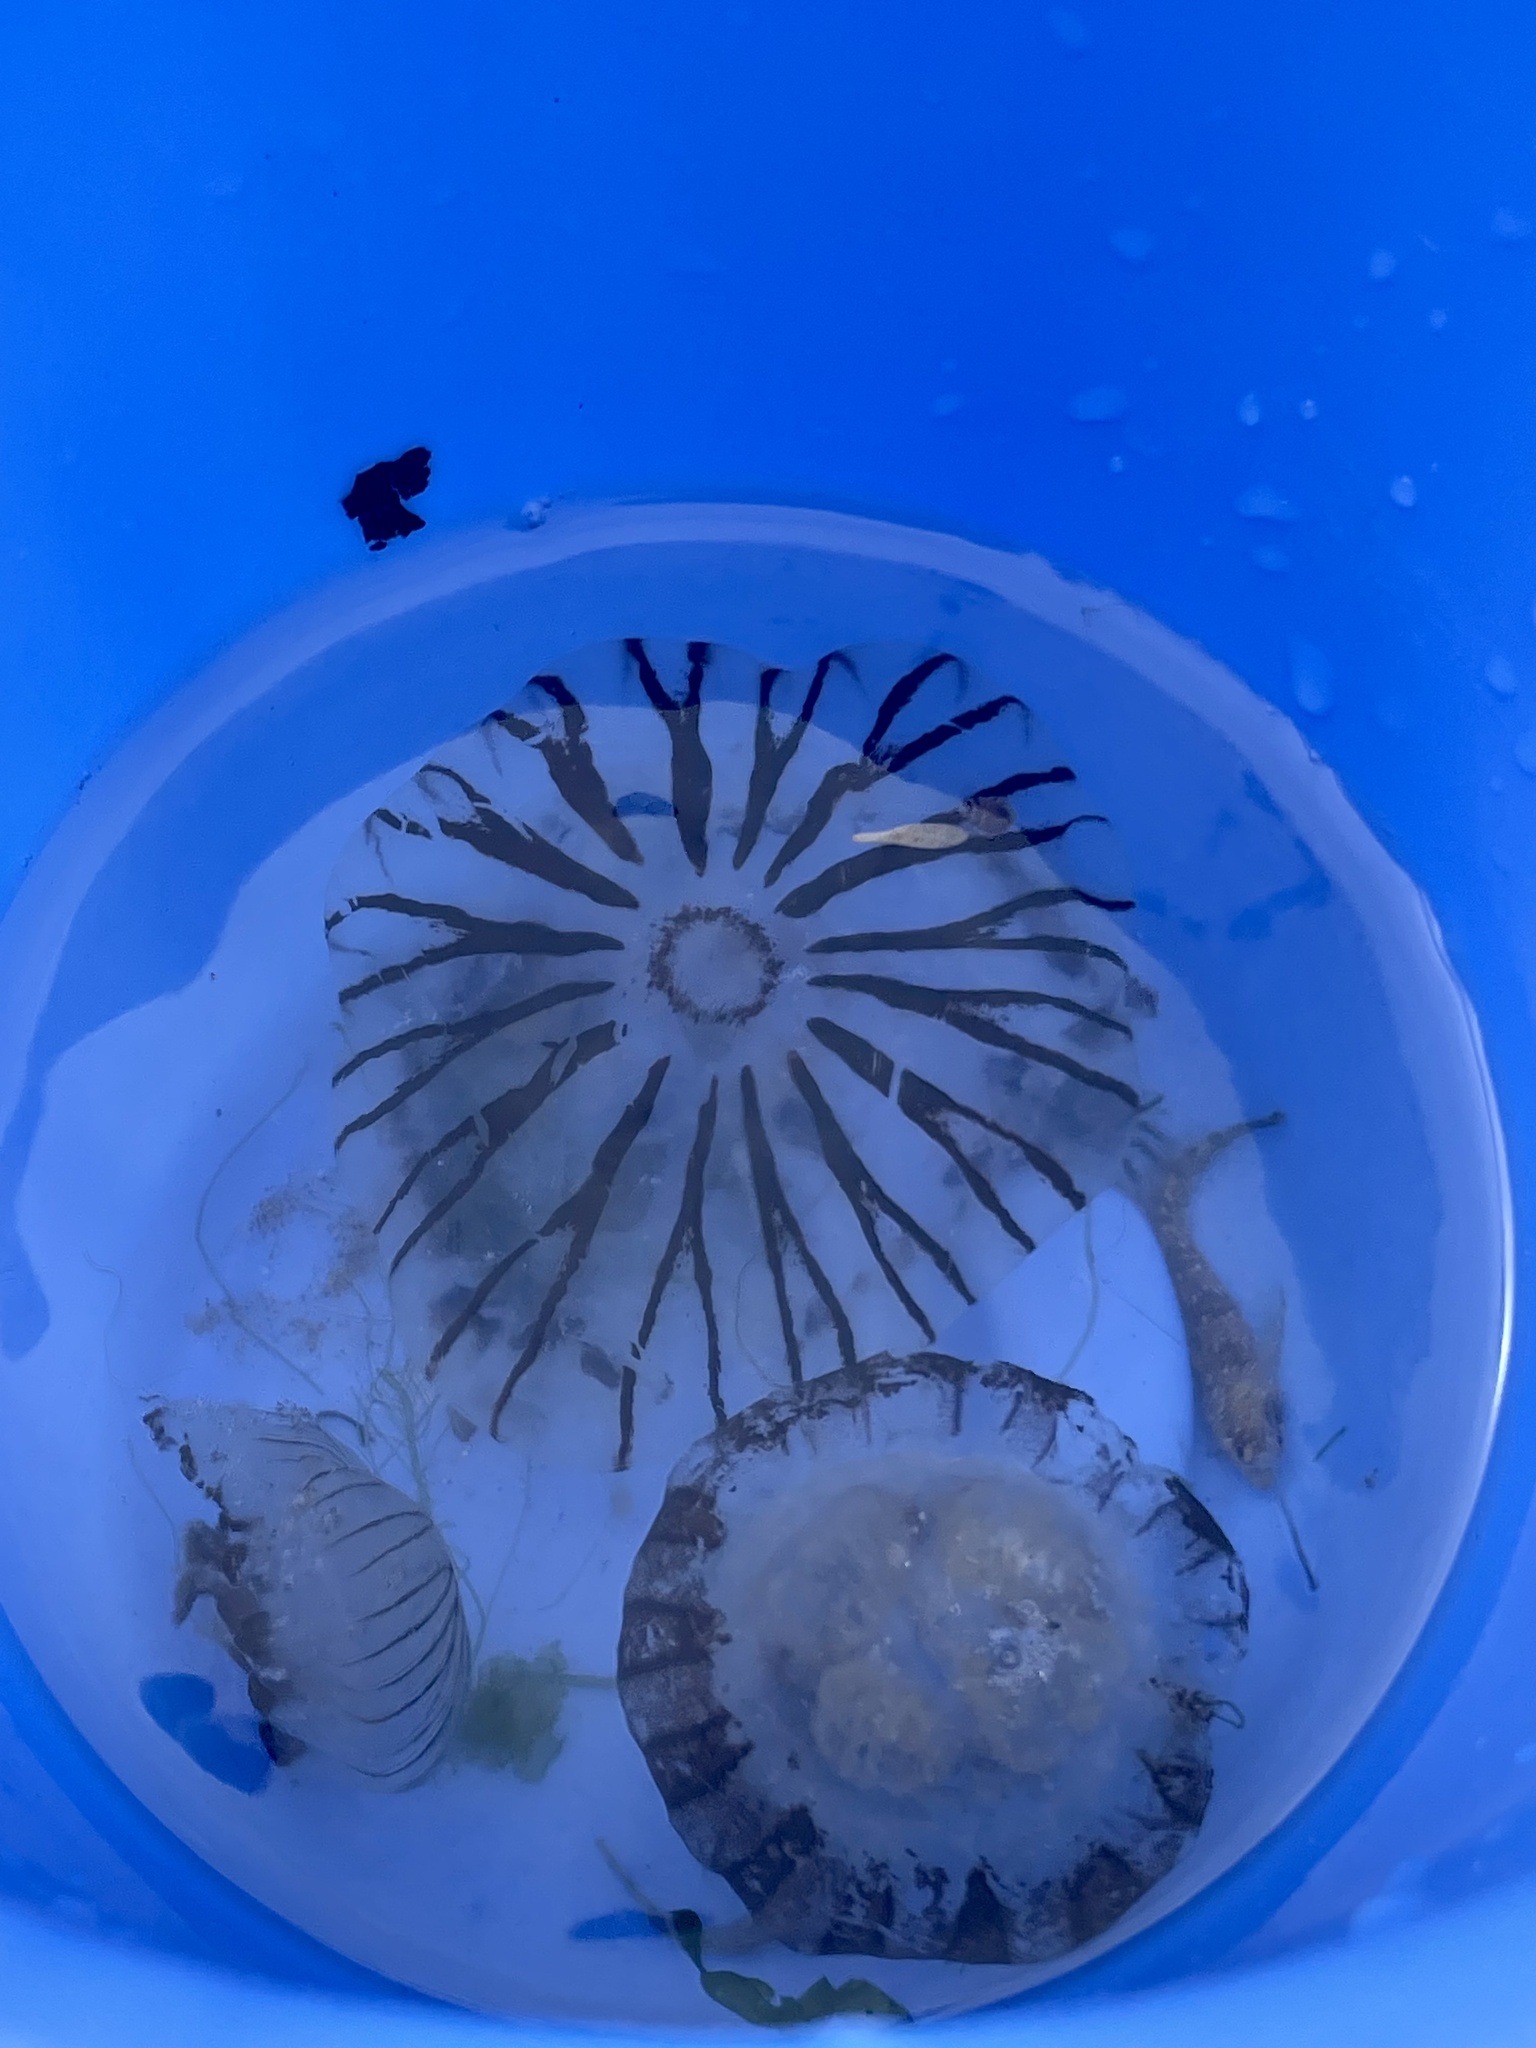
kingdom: Animalia
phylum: Cnidaria
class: Scyphozoa
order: Semaeostomeae
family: Pelagiidae
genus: Chrysaora
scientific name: Chrysaora hysoscella
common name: Compass jellyfish
